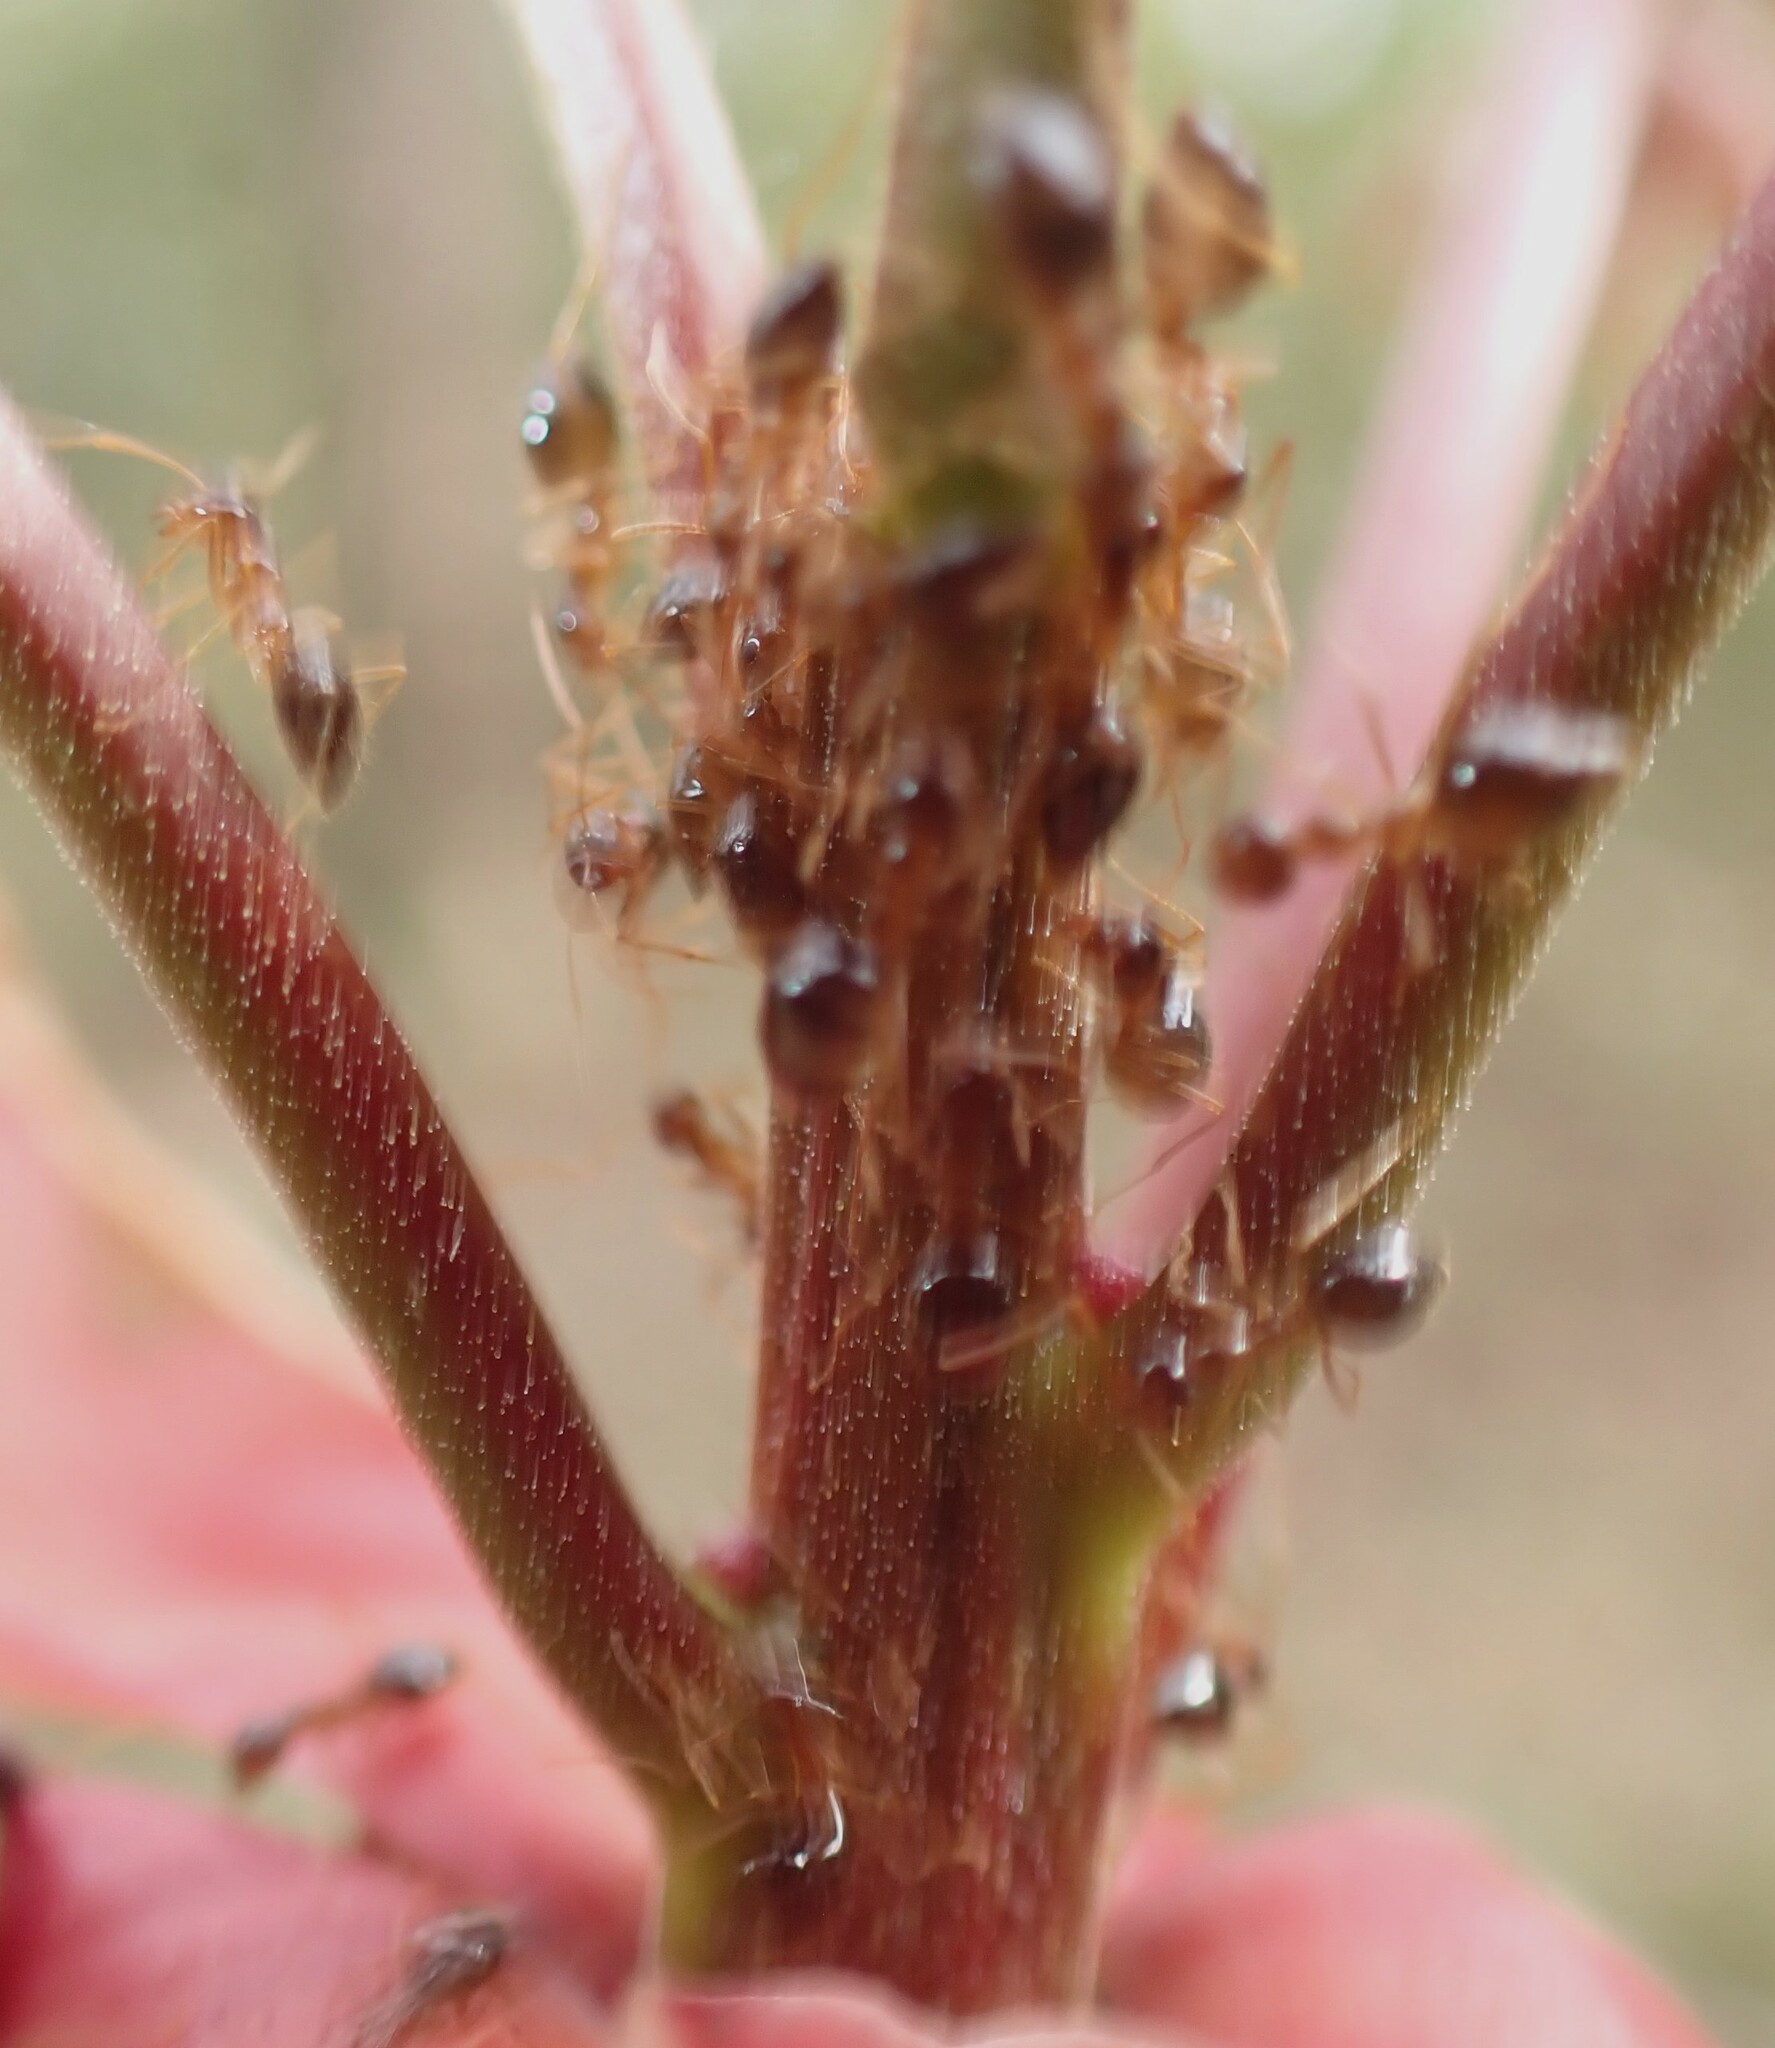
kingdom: Animalia
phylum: Arthropoda
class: Insecta
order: Hymenoptera
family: Formicidae
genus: Prenolepis
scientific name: Prenolepis imparis
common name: Small honey ant
